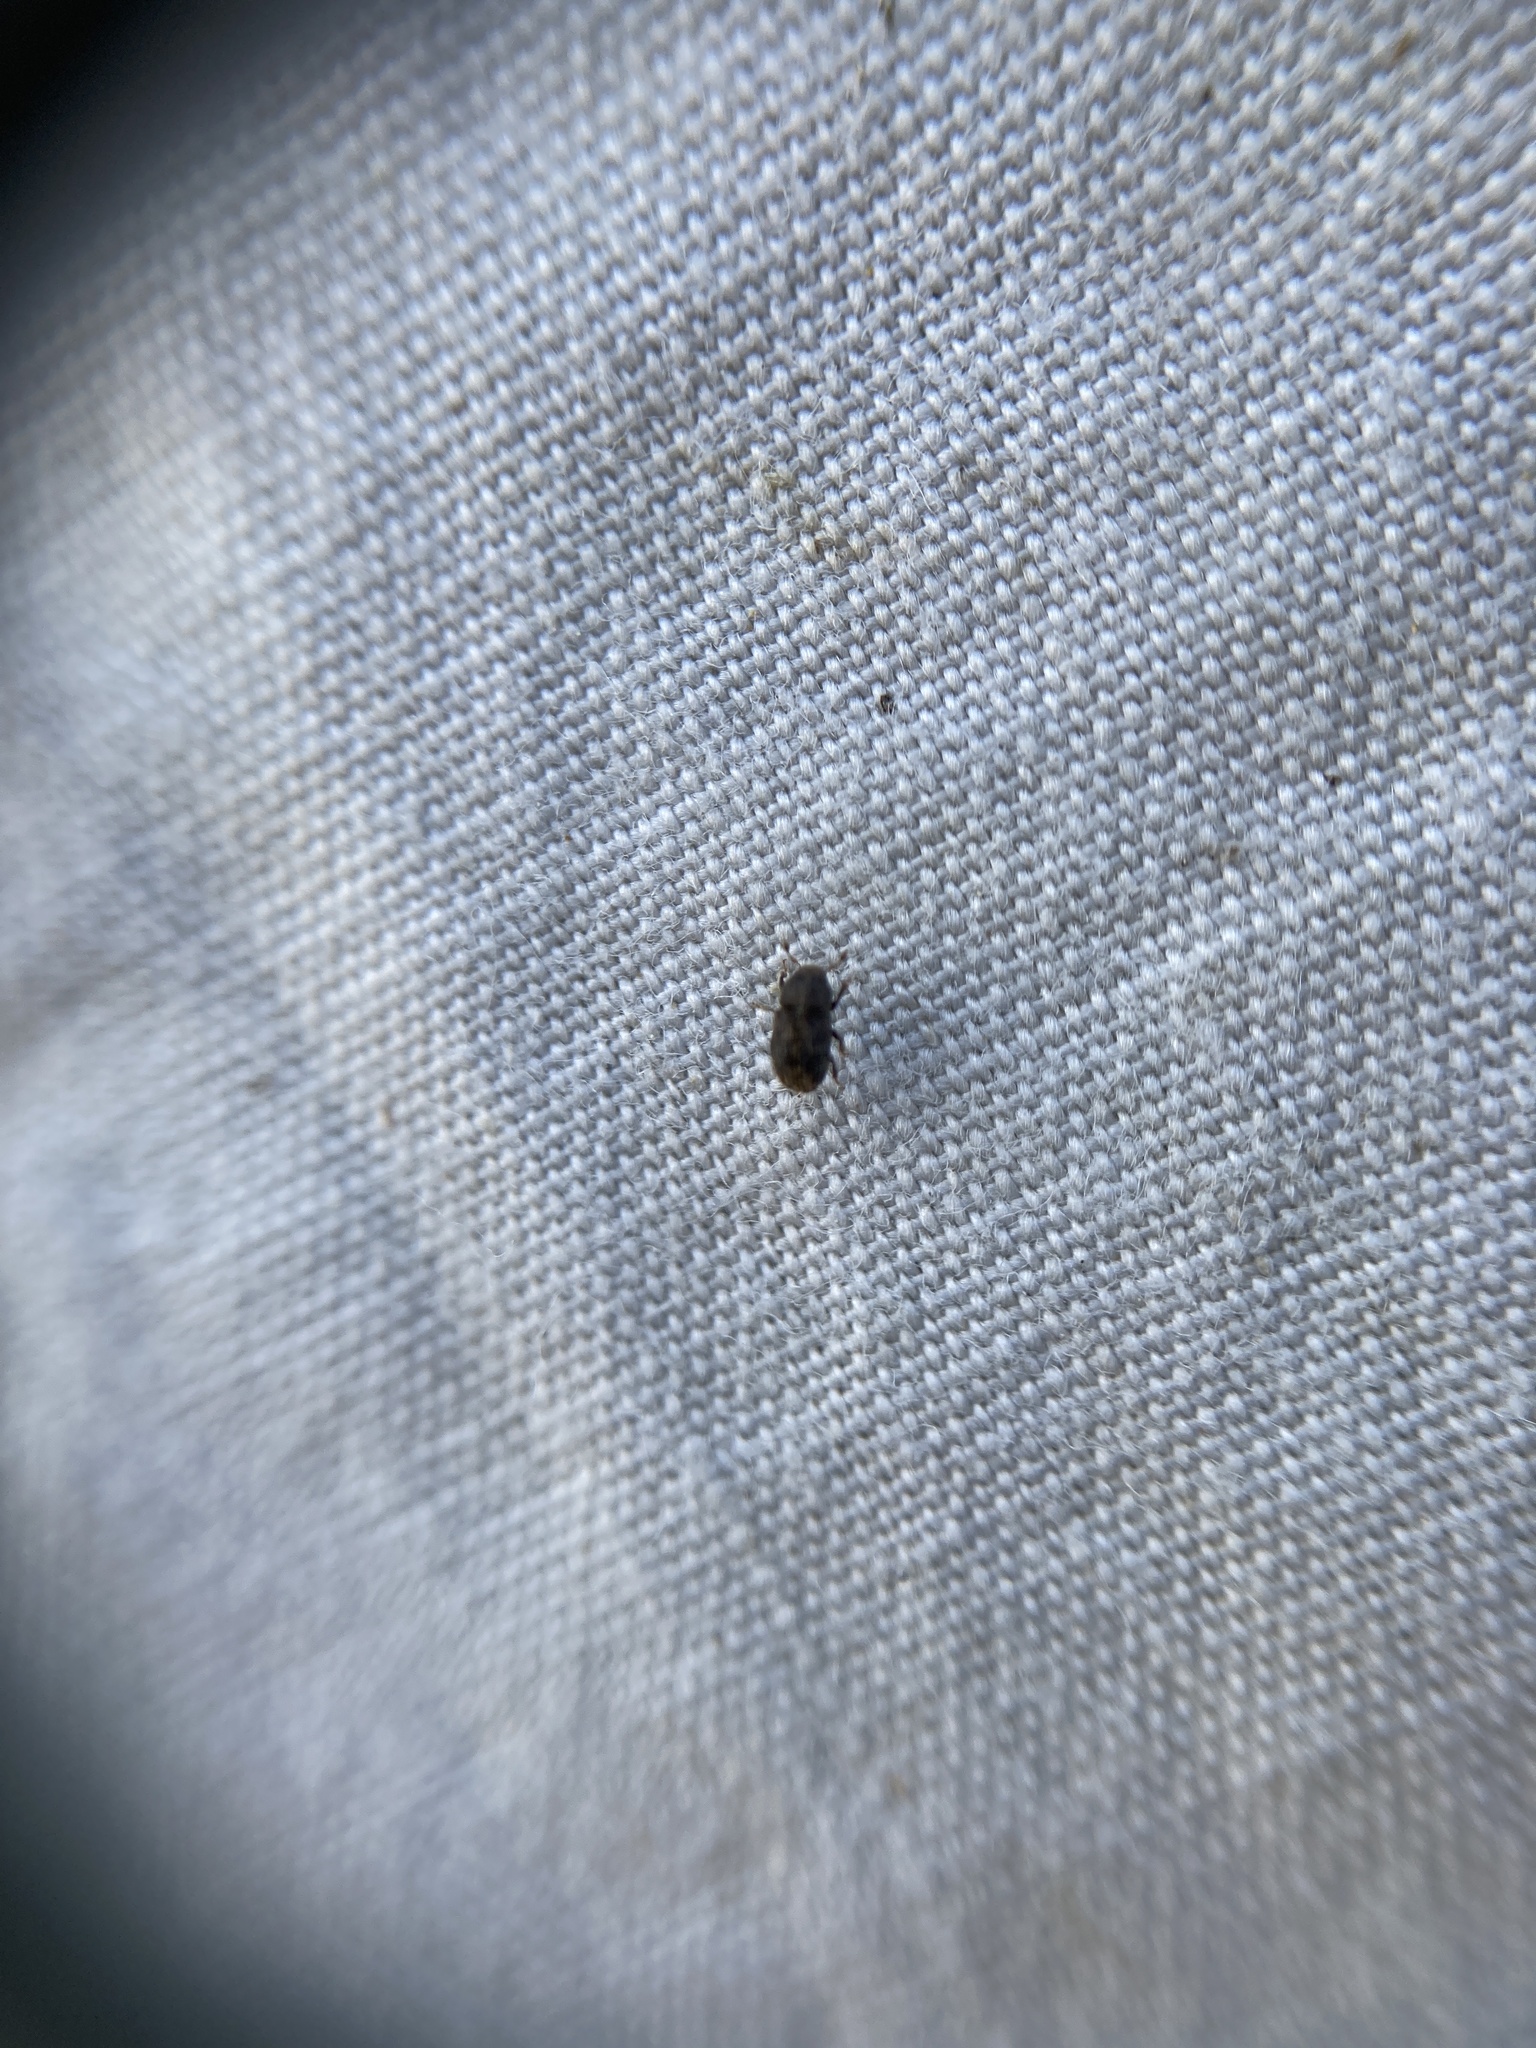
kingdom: Animalia
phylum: Arthropoda
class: Insecta
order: Coleoptera
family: Curculionidae
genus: Chaetoptelius
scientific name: Chaetoptelius mundulus
